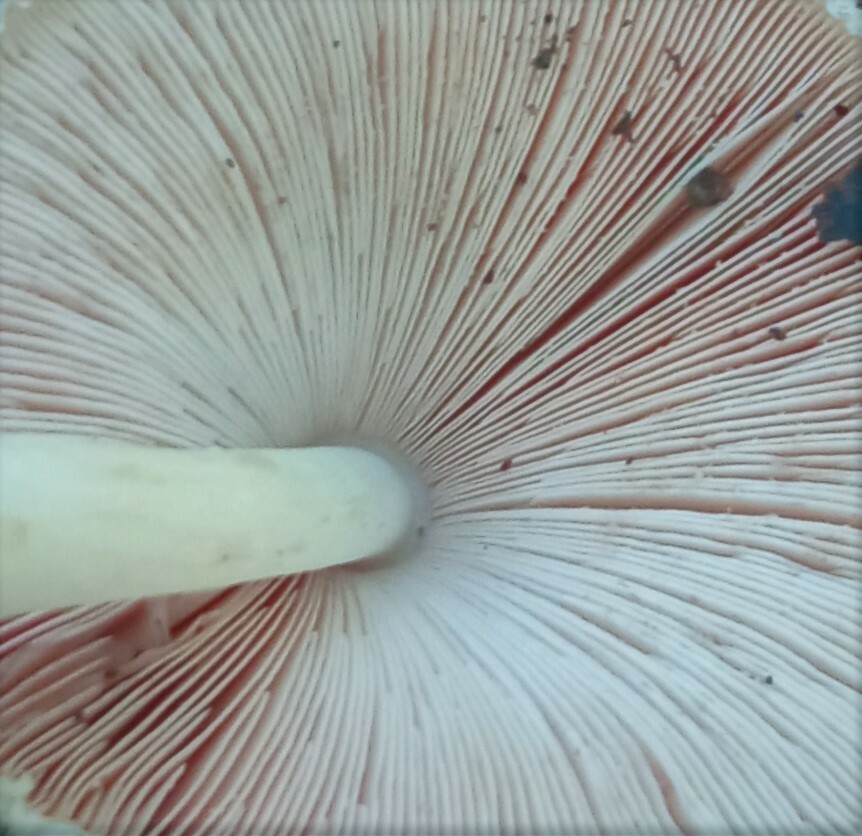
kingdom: Fungi
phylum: Basidiomycota
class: Agaricomycetes
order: Agaricales
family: Pluteaceae
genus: Volvariella
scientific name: Volvariella bombycina
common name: Silky rosegill
